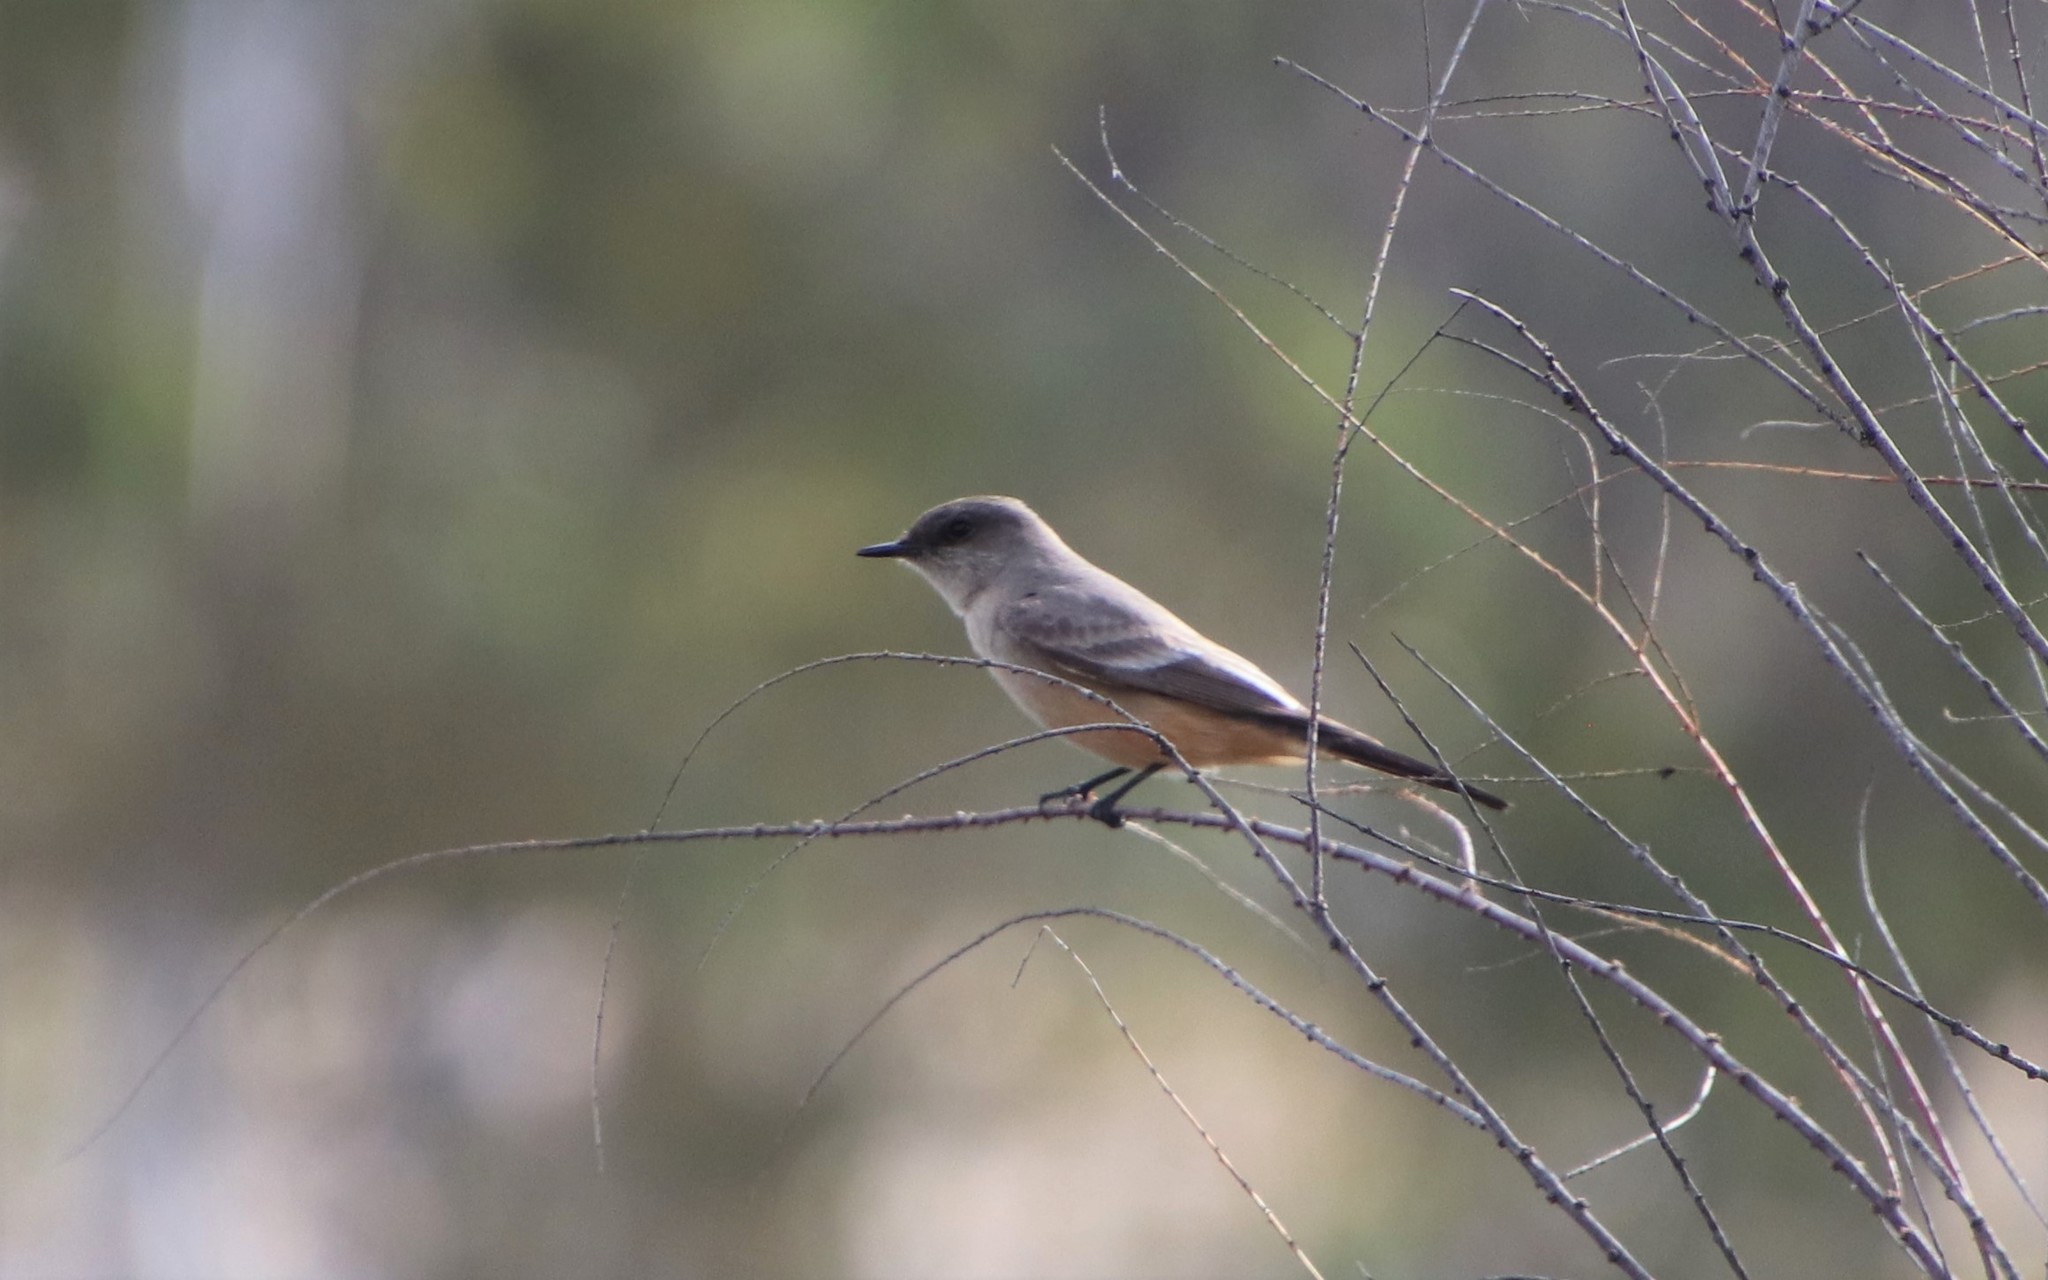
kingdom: Animalia
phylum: Chordata
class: Aves
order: Passeriformes
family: Tyrannidae
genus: Sayornis
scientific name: Sayornis saya
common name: Say's phoebe
